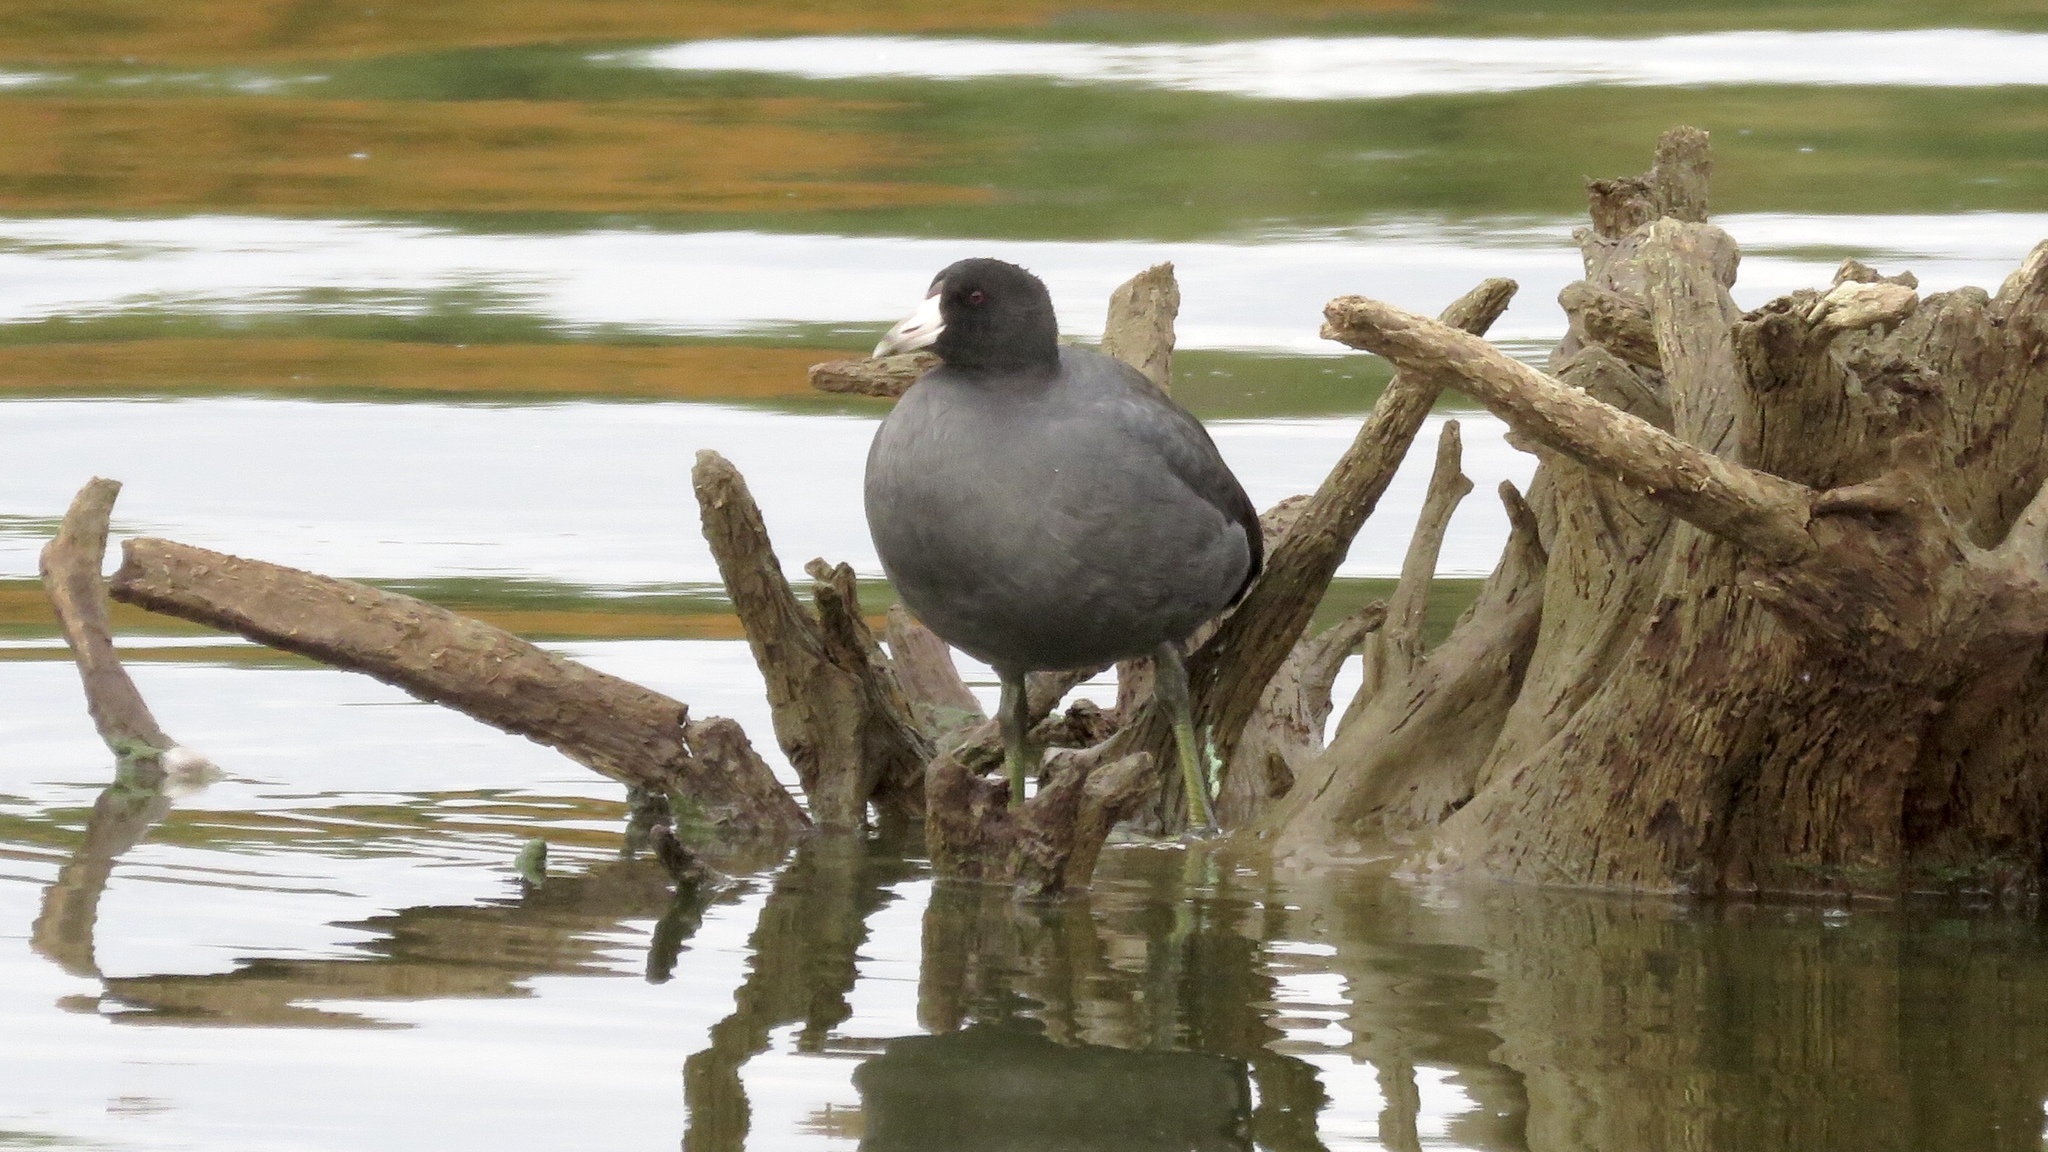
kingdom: Animalia
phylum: Chordata
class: Aves
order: Gruiformes
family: Rallidae
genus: Fulica
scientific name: Fulica americana
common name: American coot
